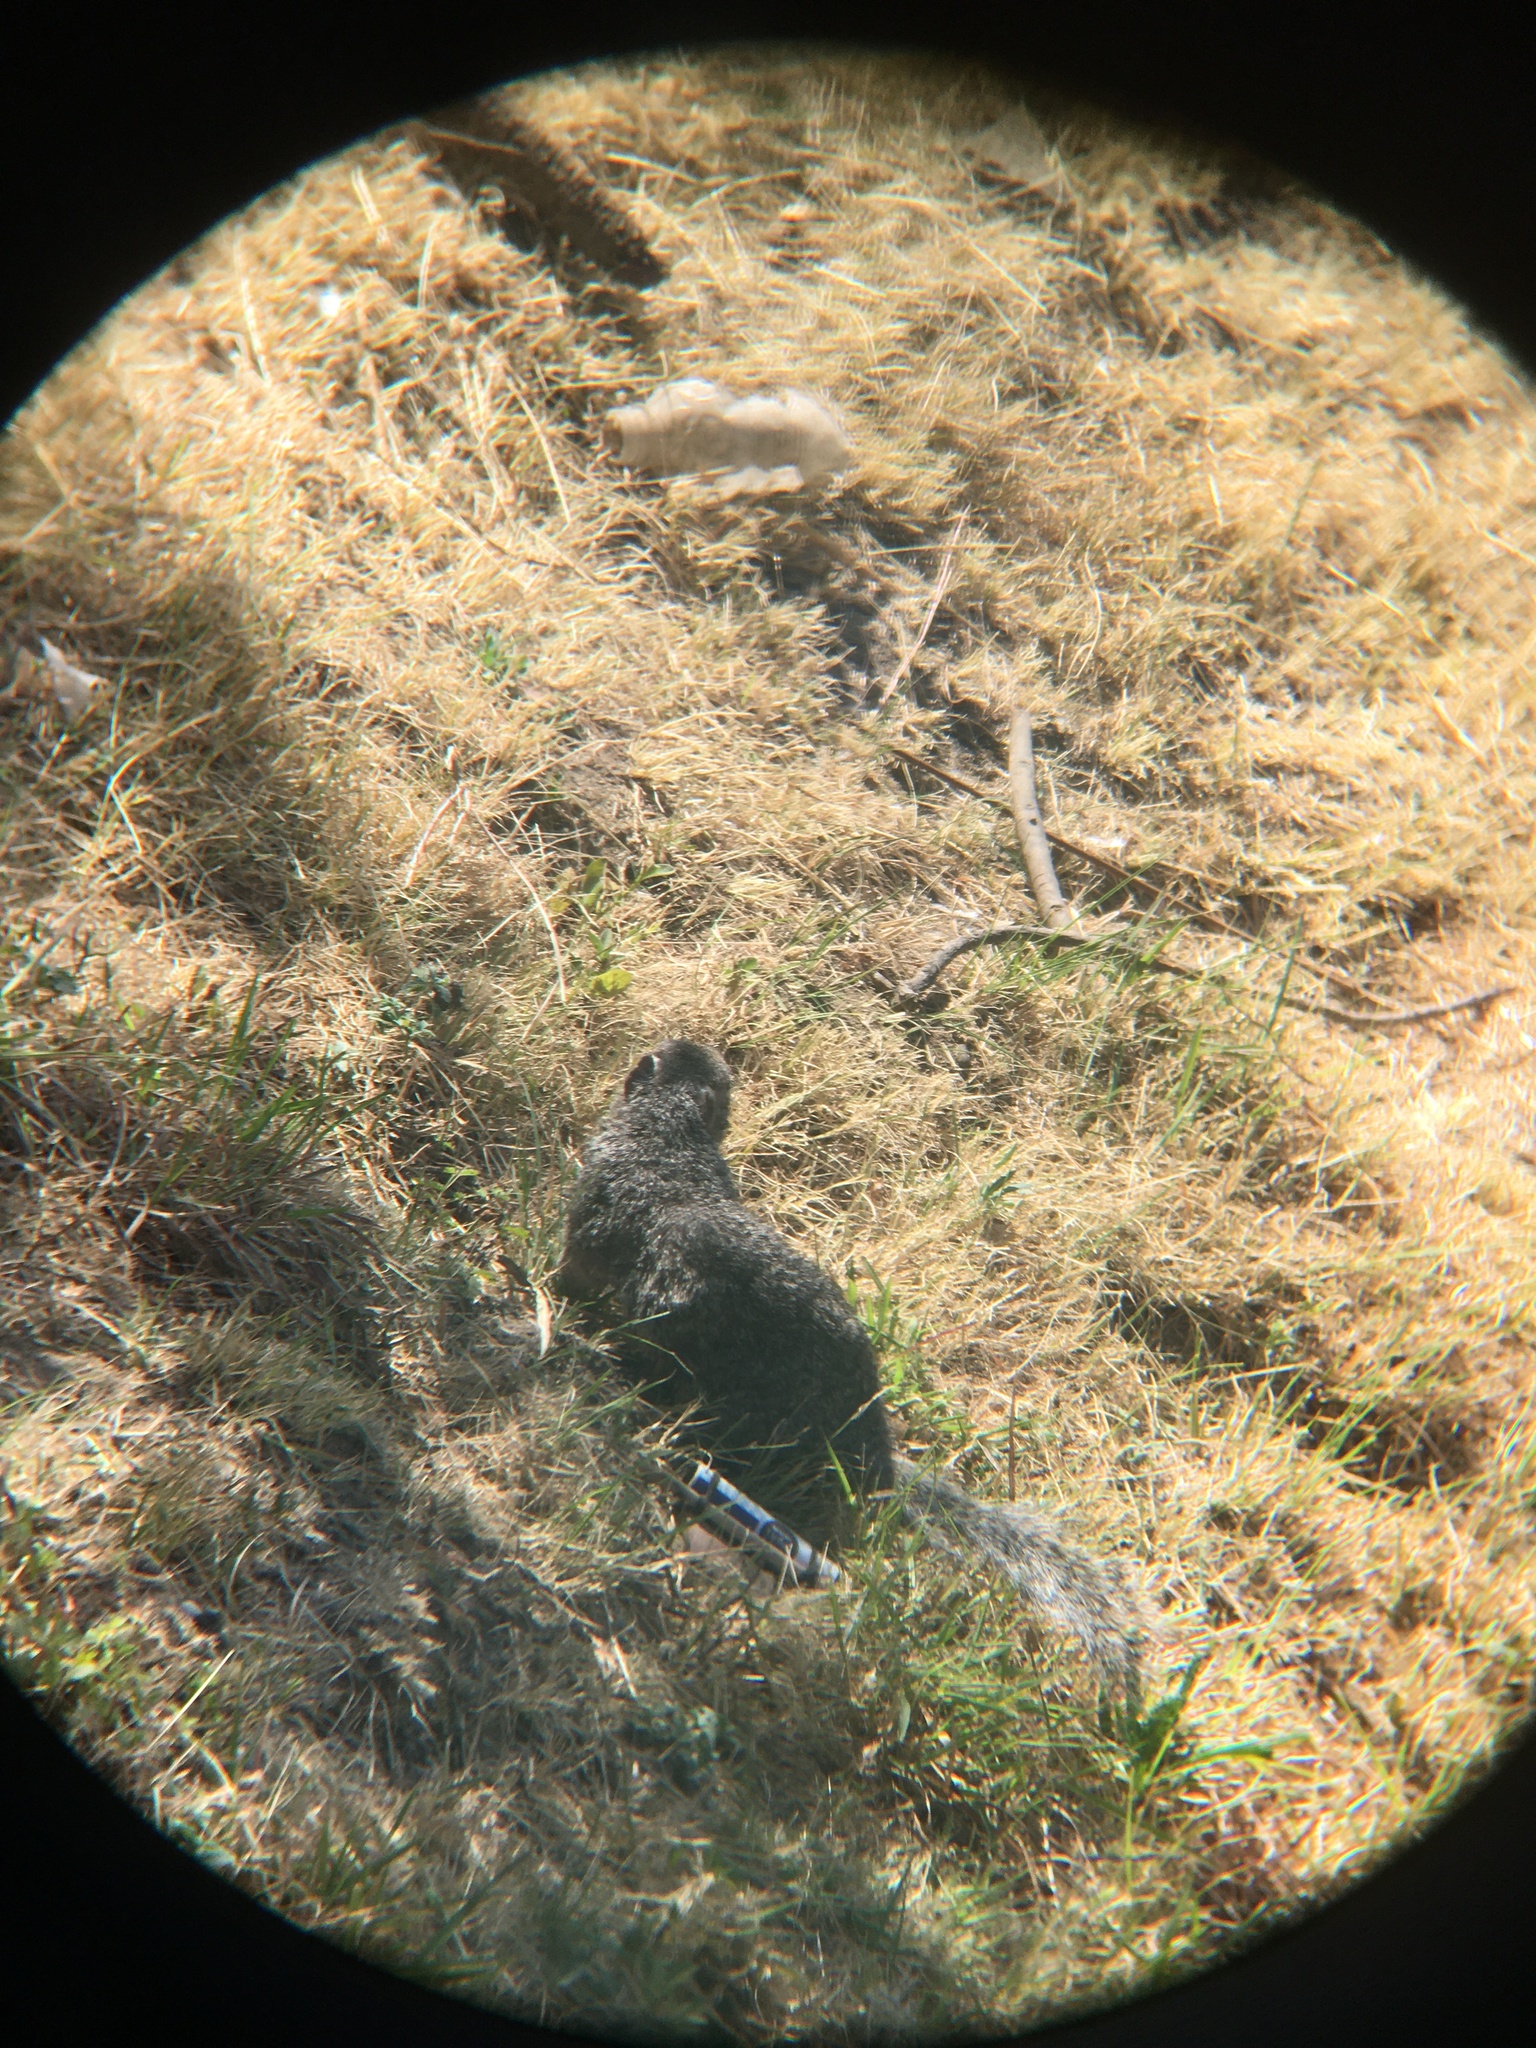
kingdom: Animalia
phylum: Chordata
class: Mammalia
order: Rodentia
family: Sciuridae
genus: Otospermophilus
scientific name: Otospermophilus variegatus
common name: Rock squirrel
